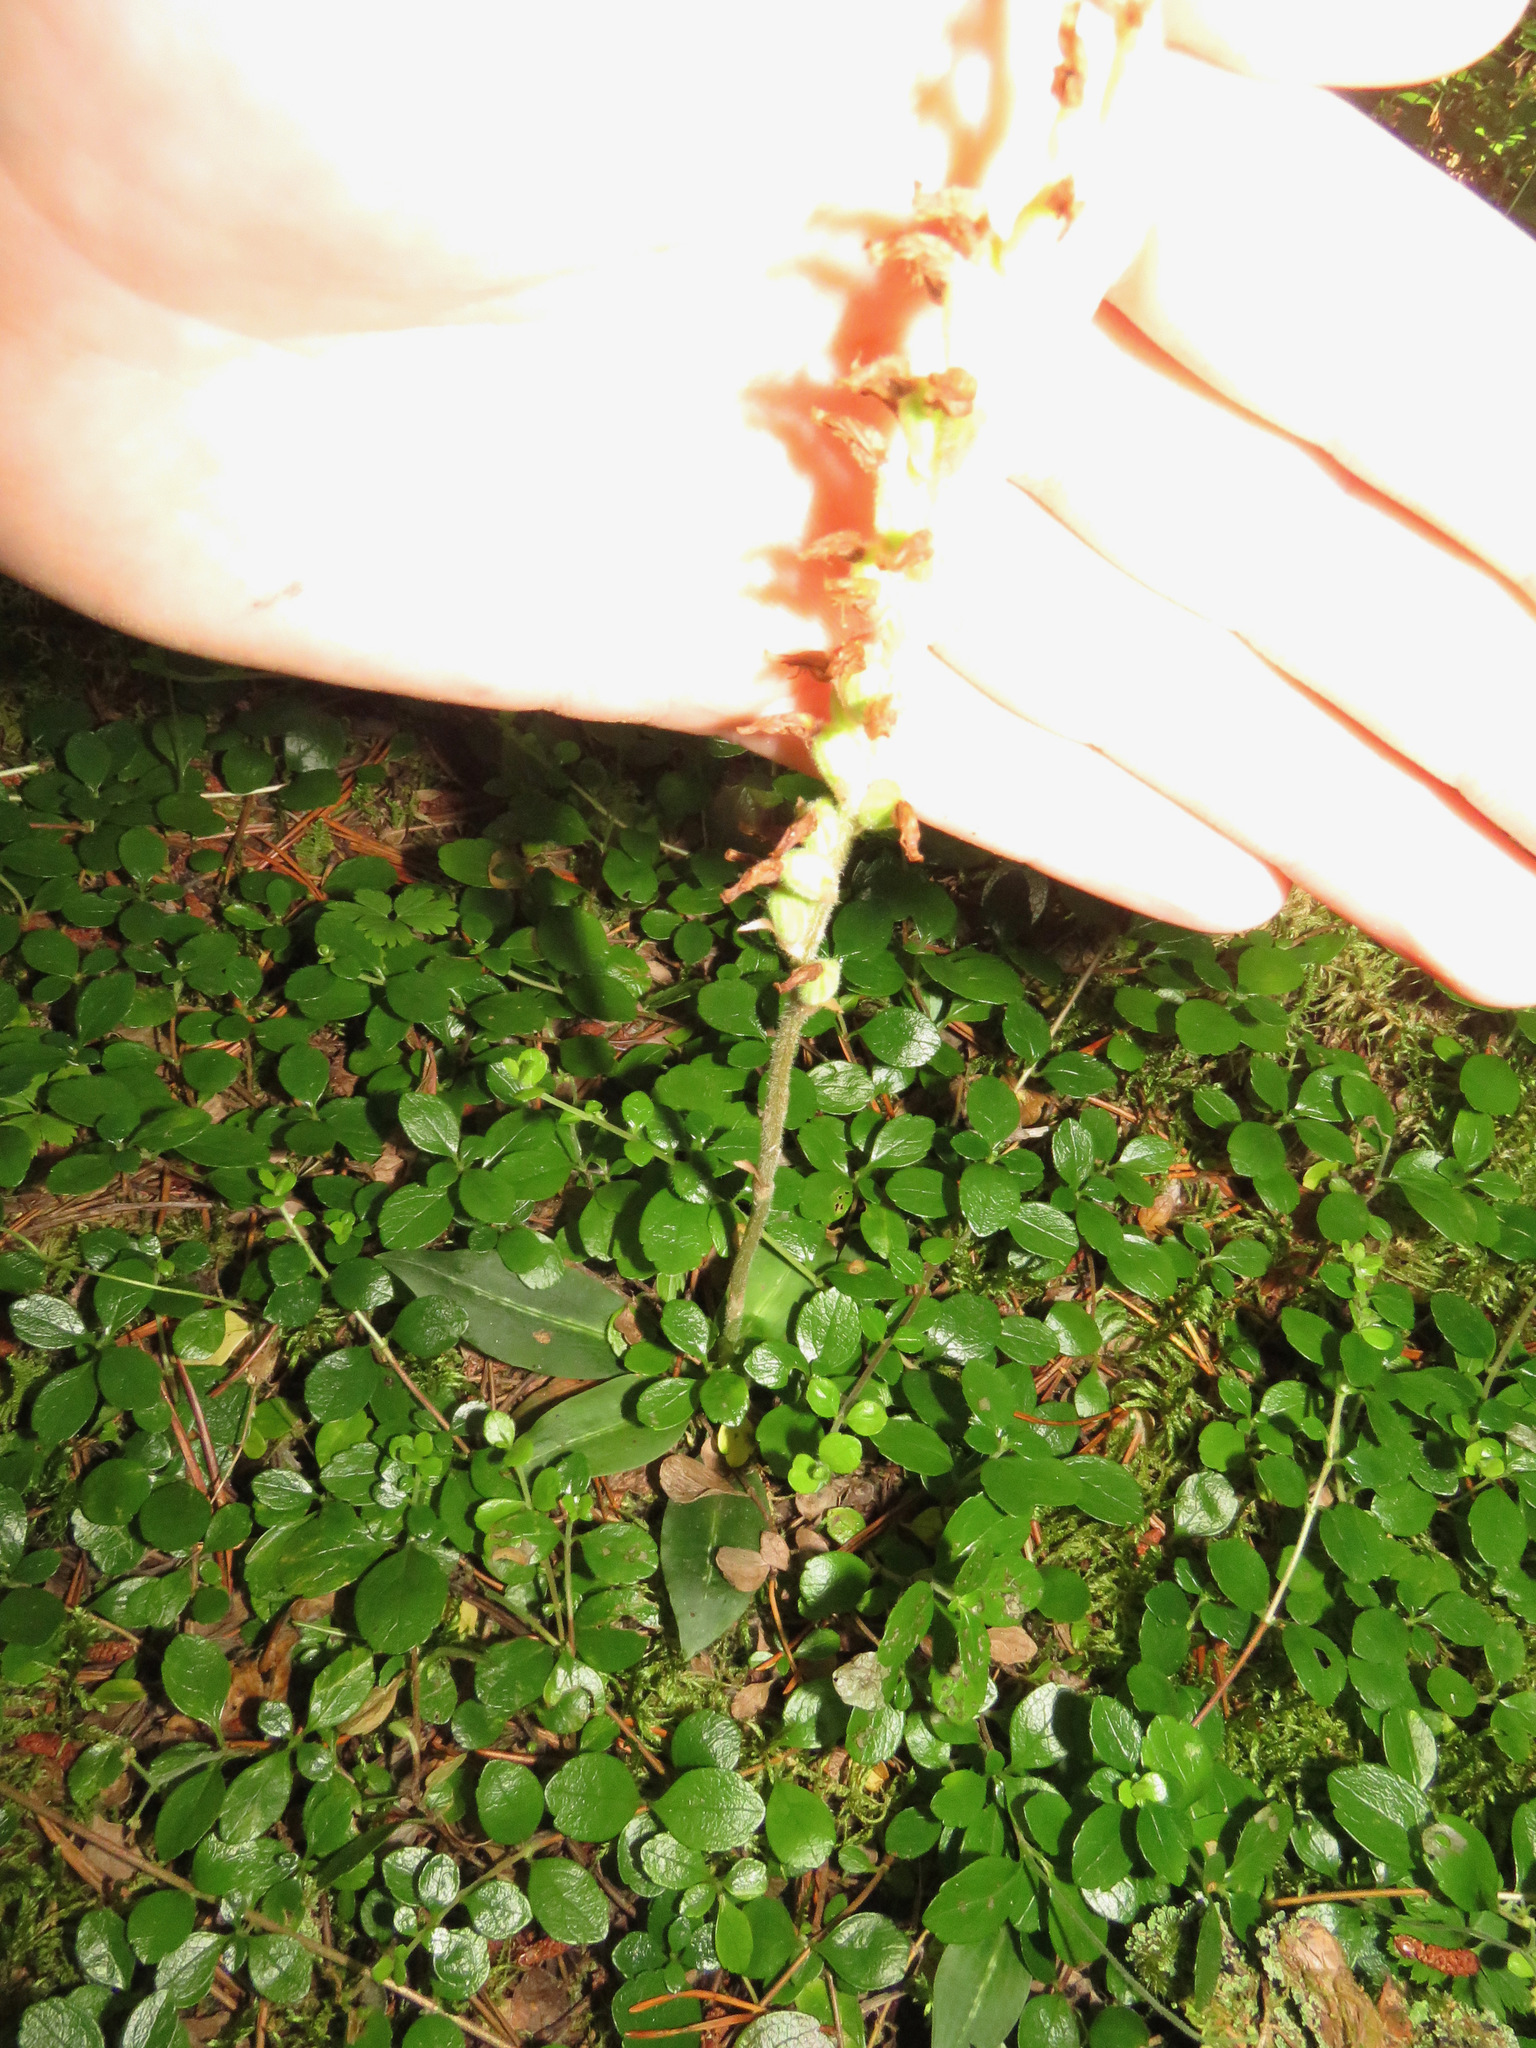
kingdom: Plantae
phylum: Tracheophyta
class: Liliopsida
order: Asparagales
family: Orchidaceae
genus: Goodyera
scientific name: Goodyera oblongifolia
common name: Giant rattlesnake-plantain
